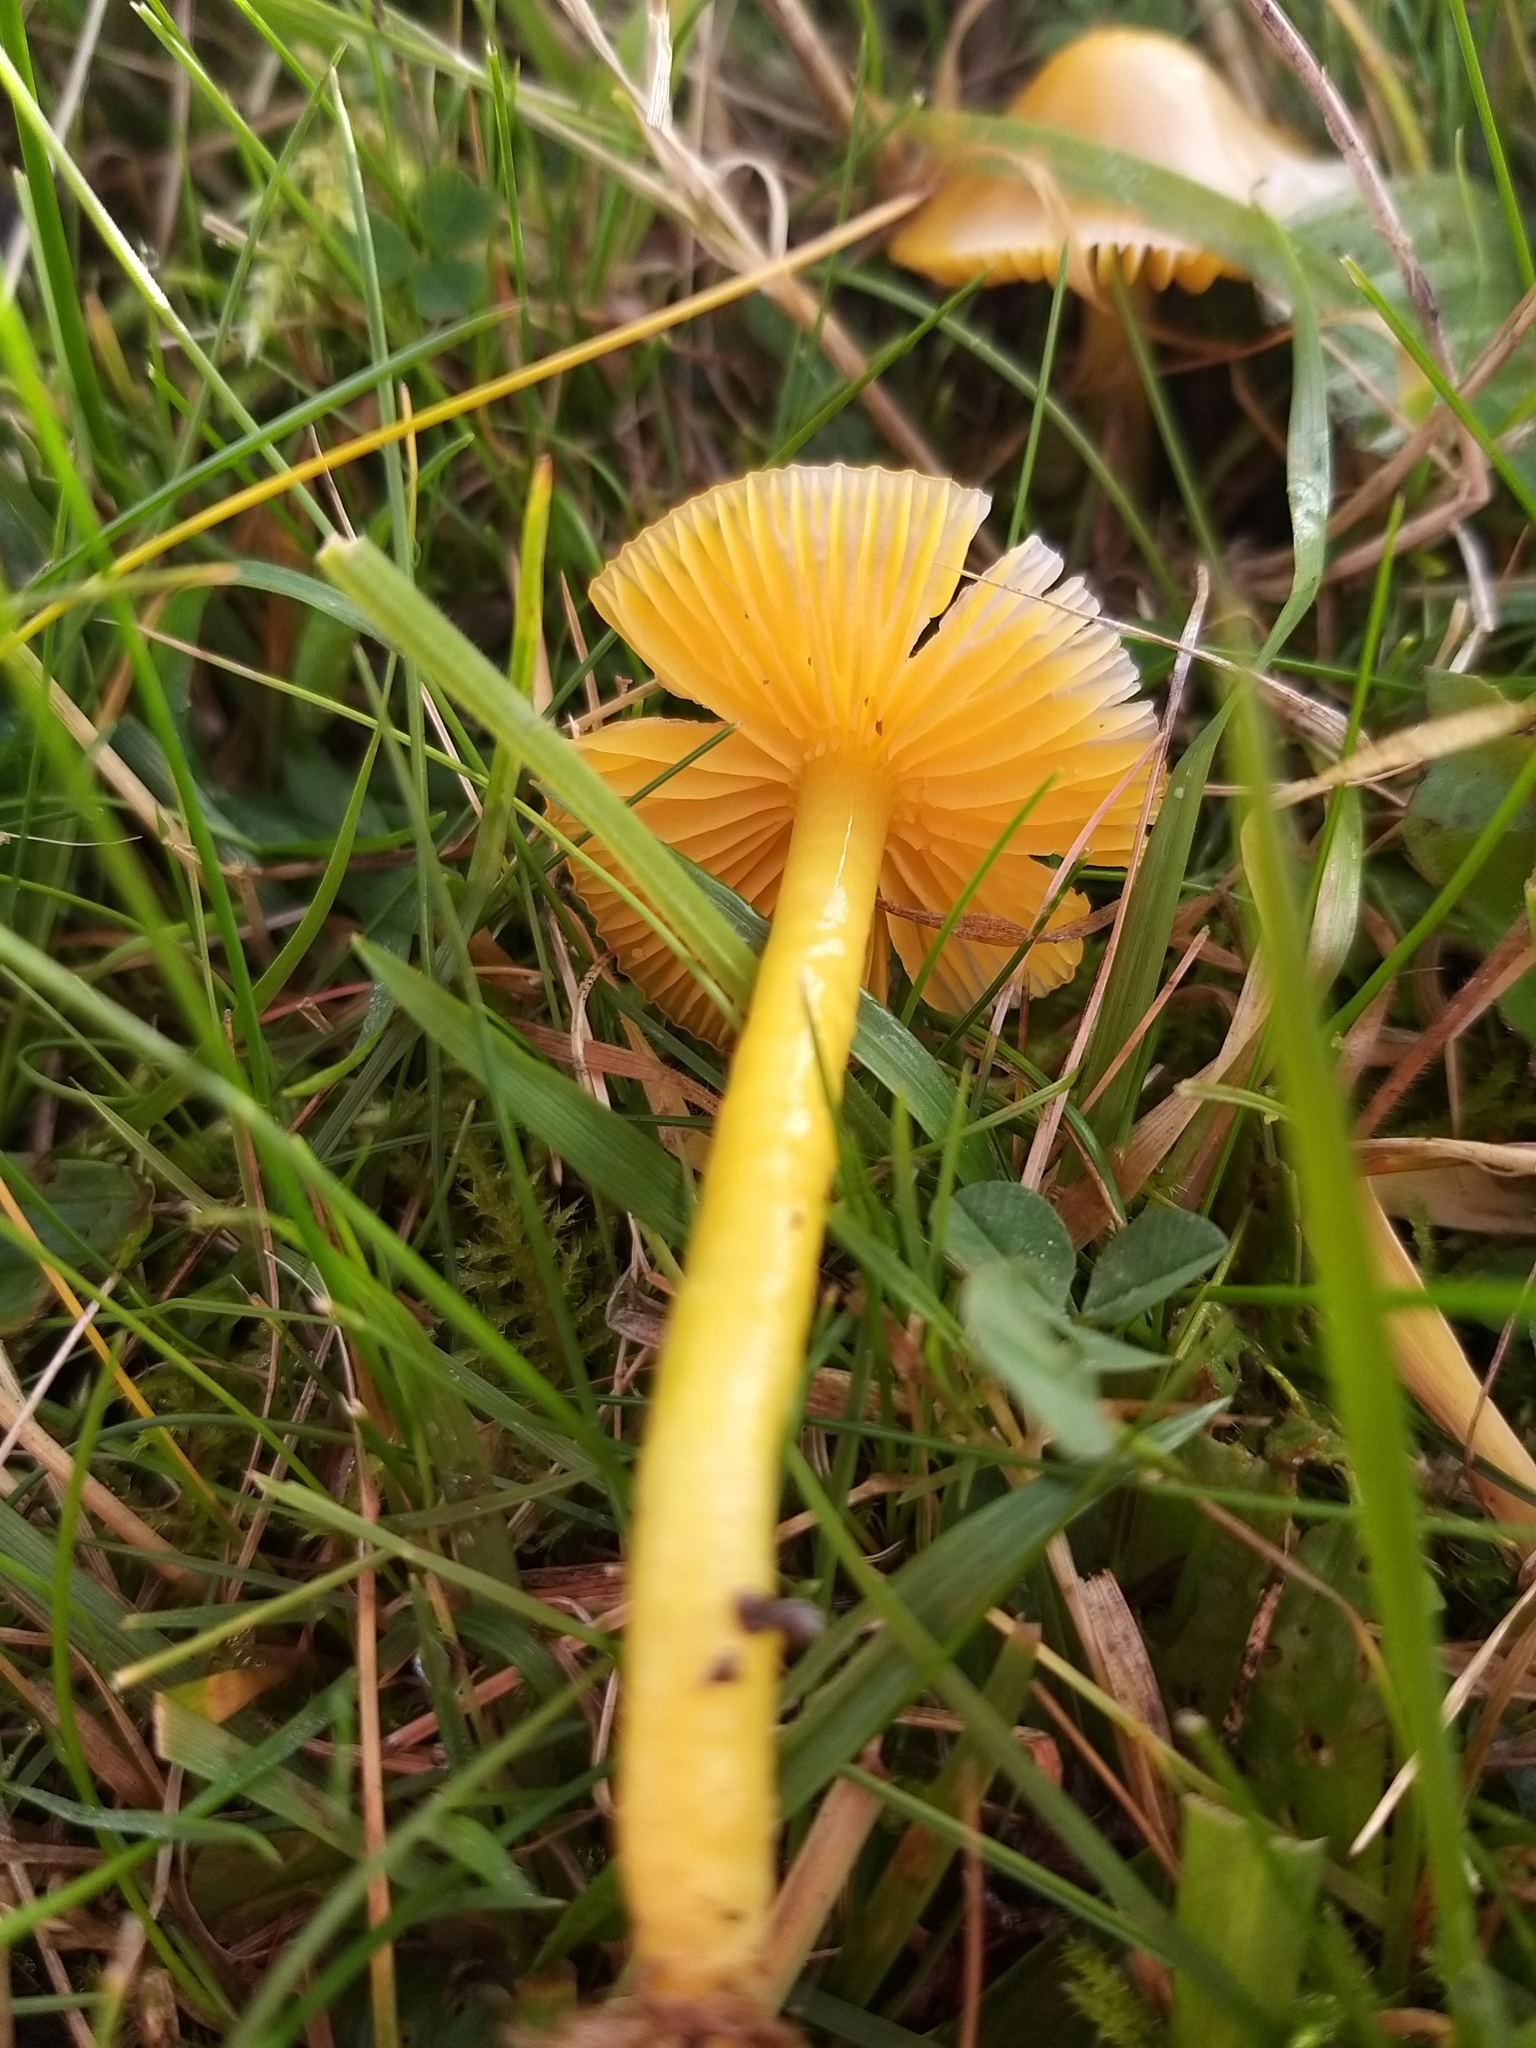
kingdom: Fungi
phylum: Basidiomycota
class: Agaricomycetes
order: Agaricales
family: Hygrophoraceae
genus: Gliophorus
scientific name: Gliophorus psittacinus
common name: Parrot wax-cap
